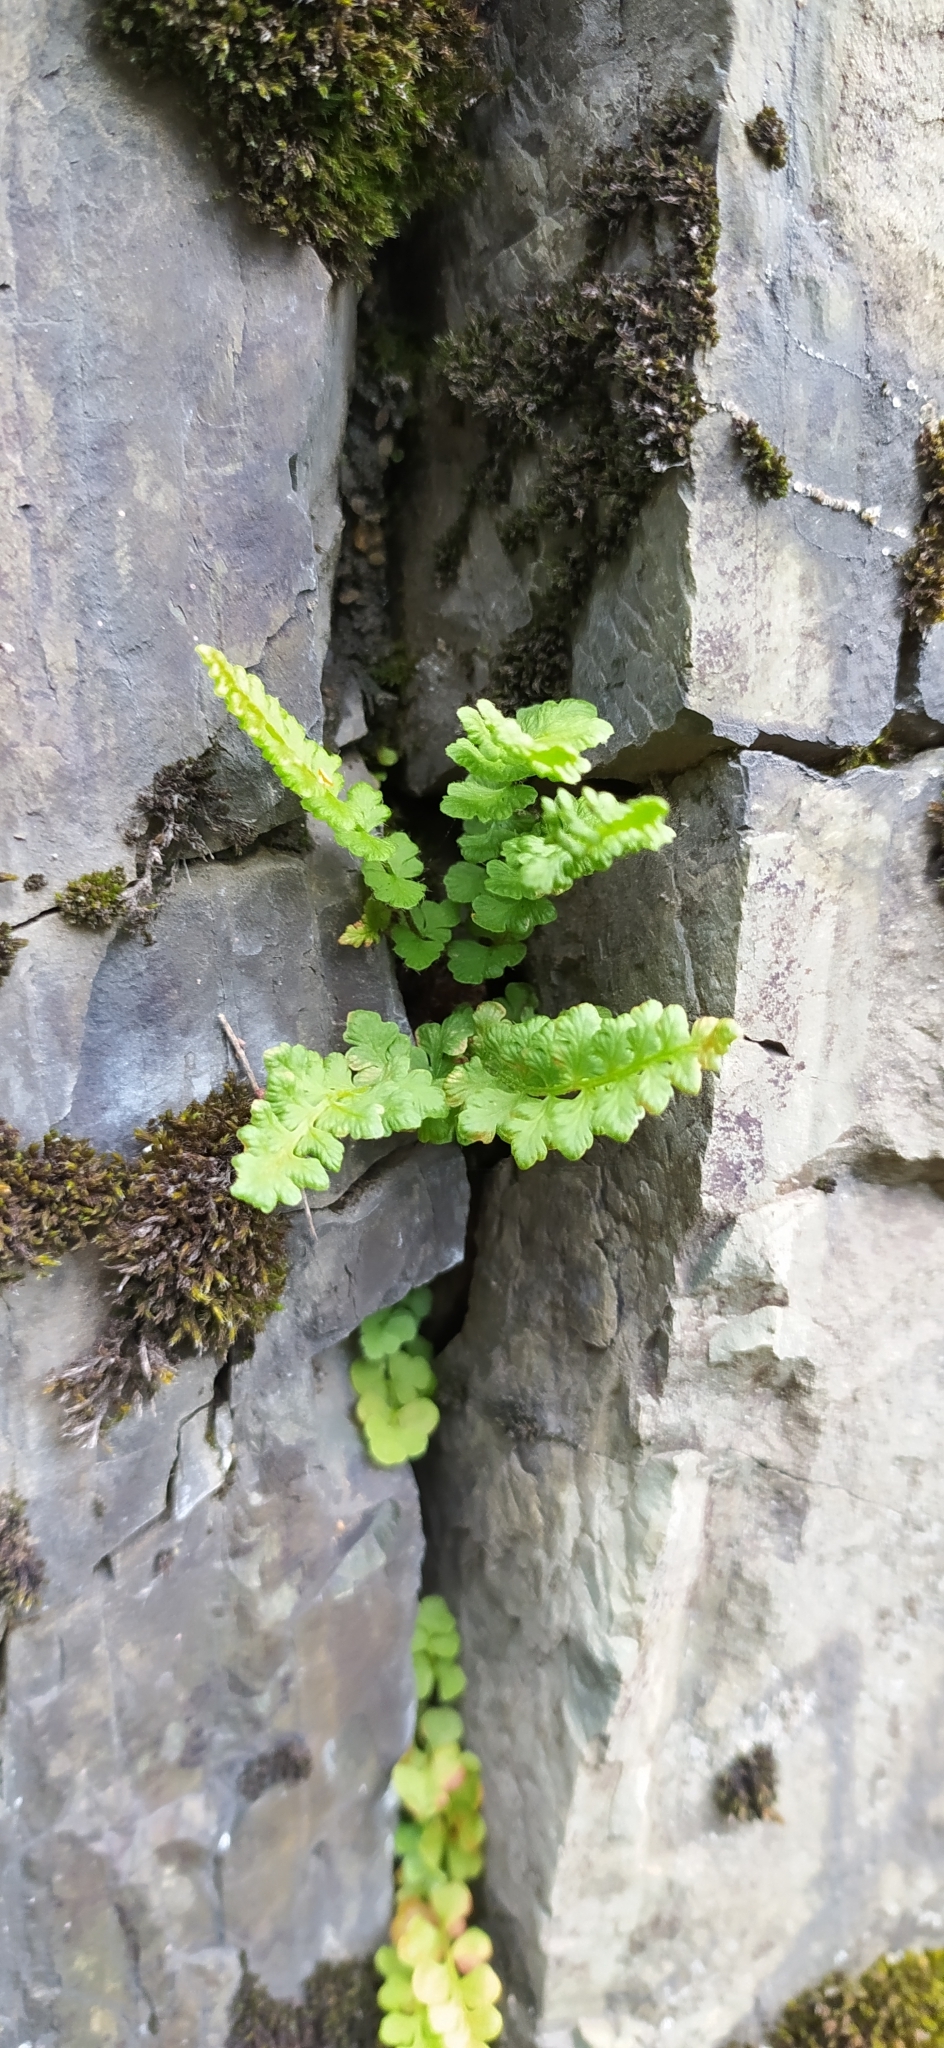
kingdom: Plantae
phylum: Tracheophyta
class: Polypodiopsida
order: Polypodiales
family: Woodsiaceae
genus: Woodsia
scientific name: Woodsia alpina
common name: Alpine woodsia
